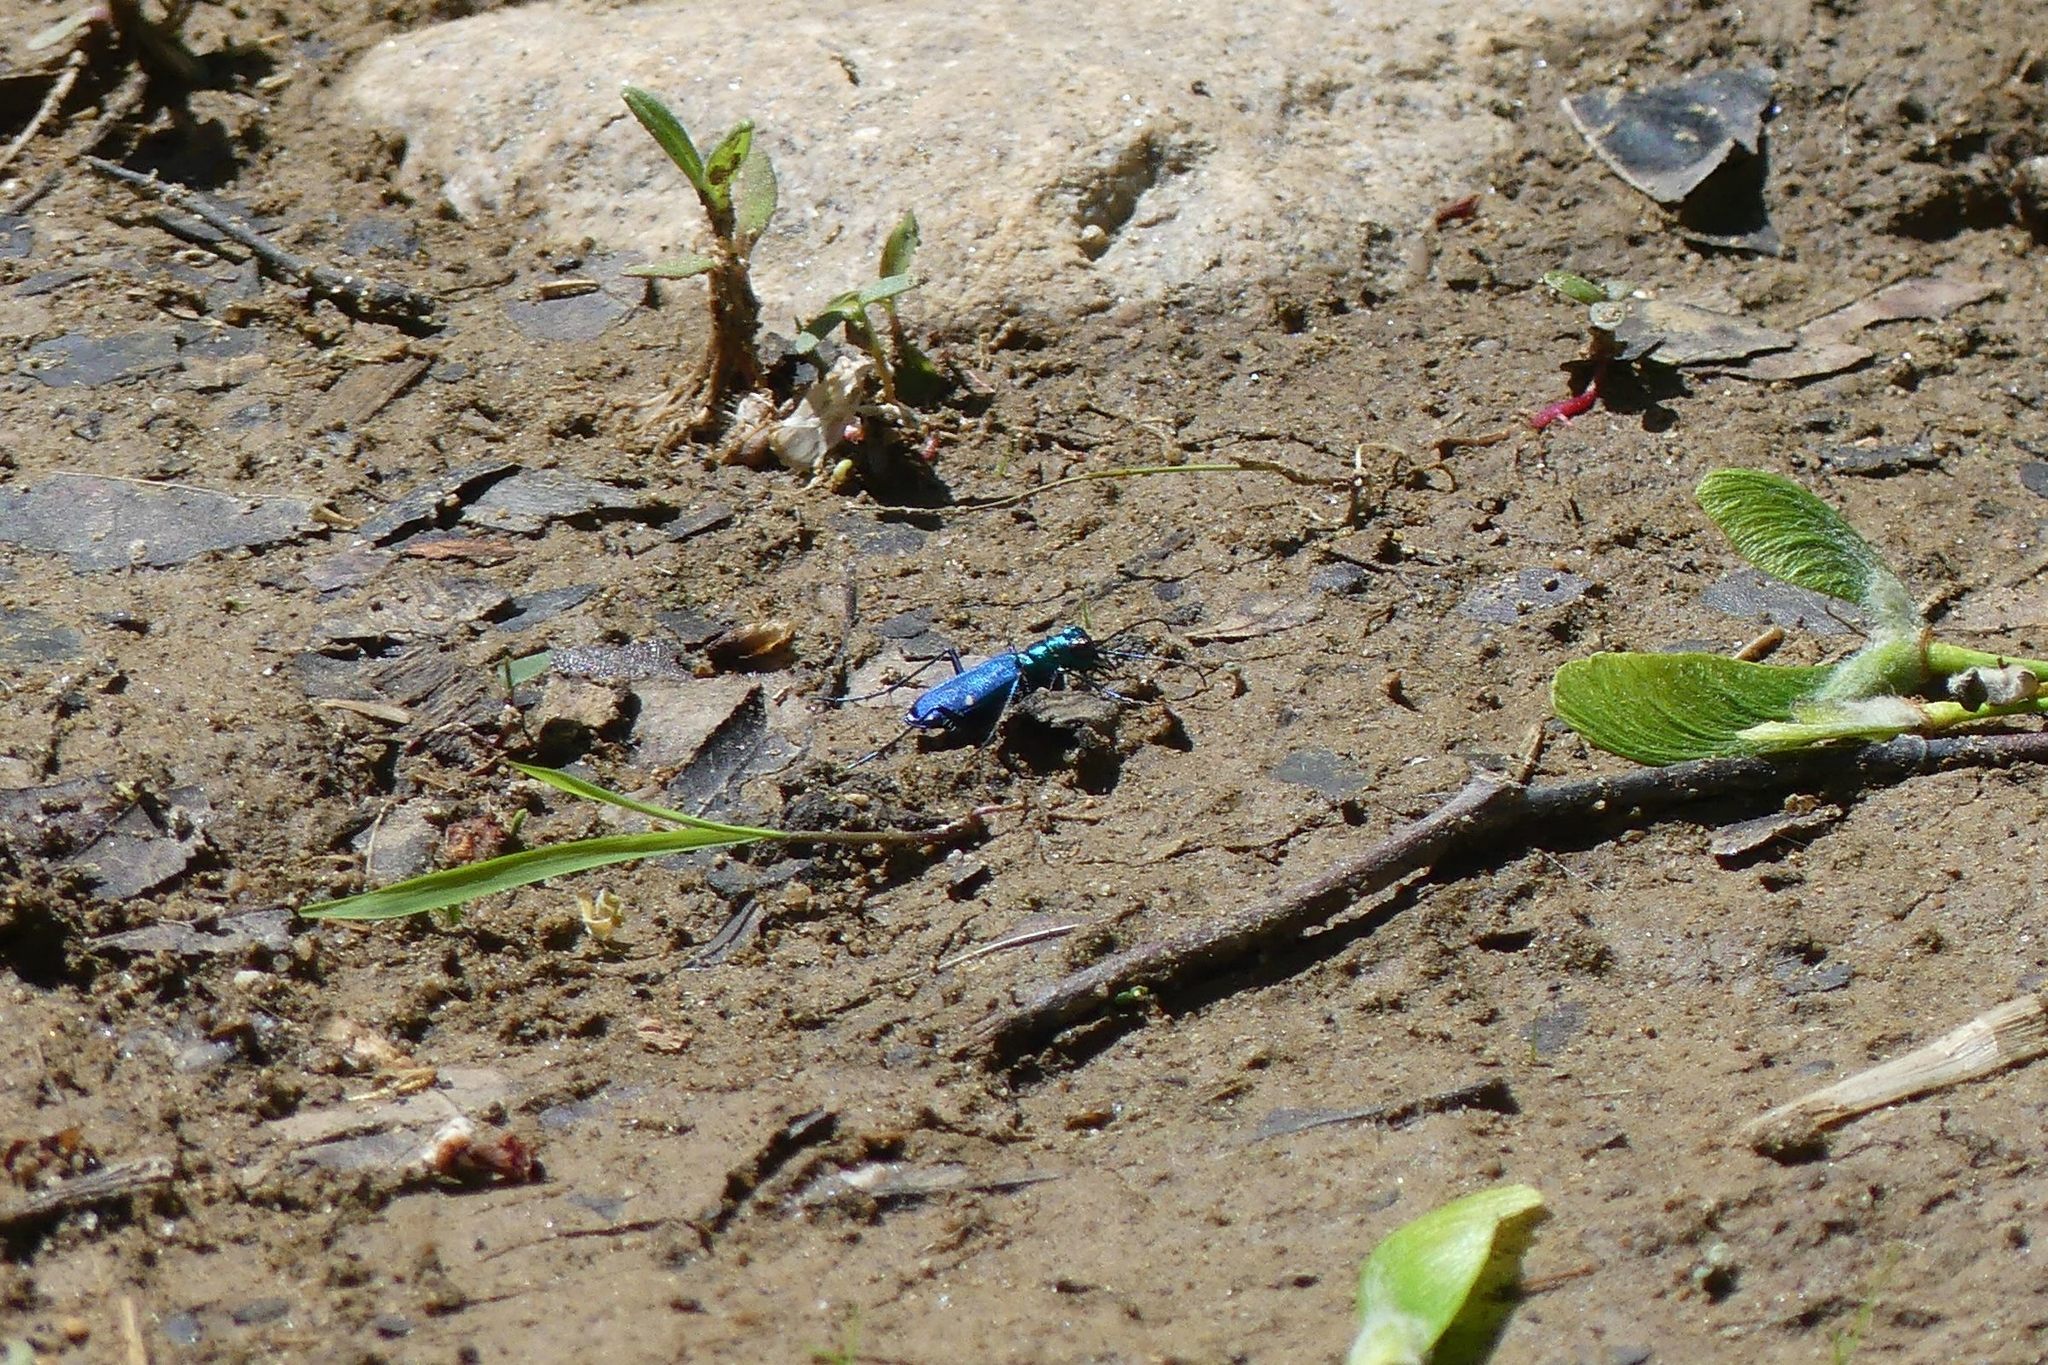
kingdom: Animalia
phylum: Arthropoda
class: Insecta
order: Coleoptera
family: Carabidae
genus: Cicindela
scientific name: Cicindela sexguttata
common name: Six-spotted tiger beetle
